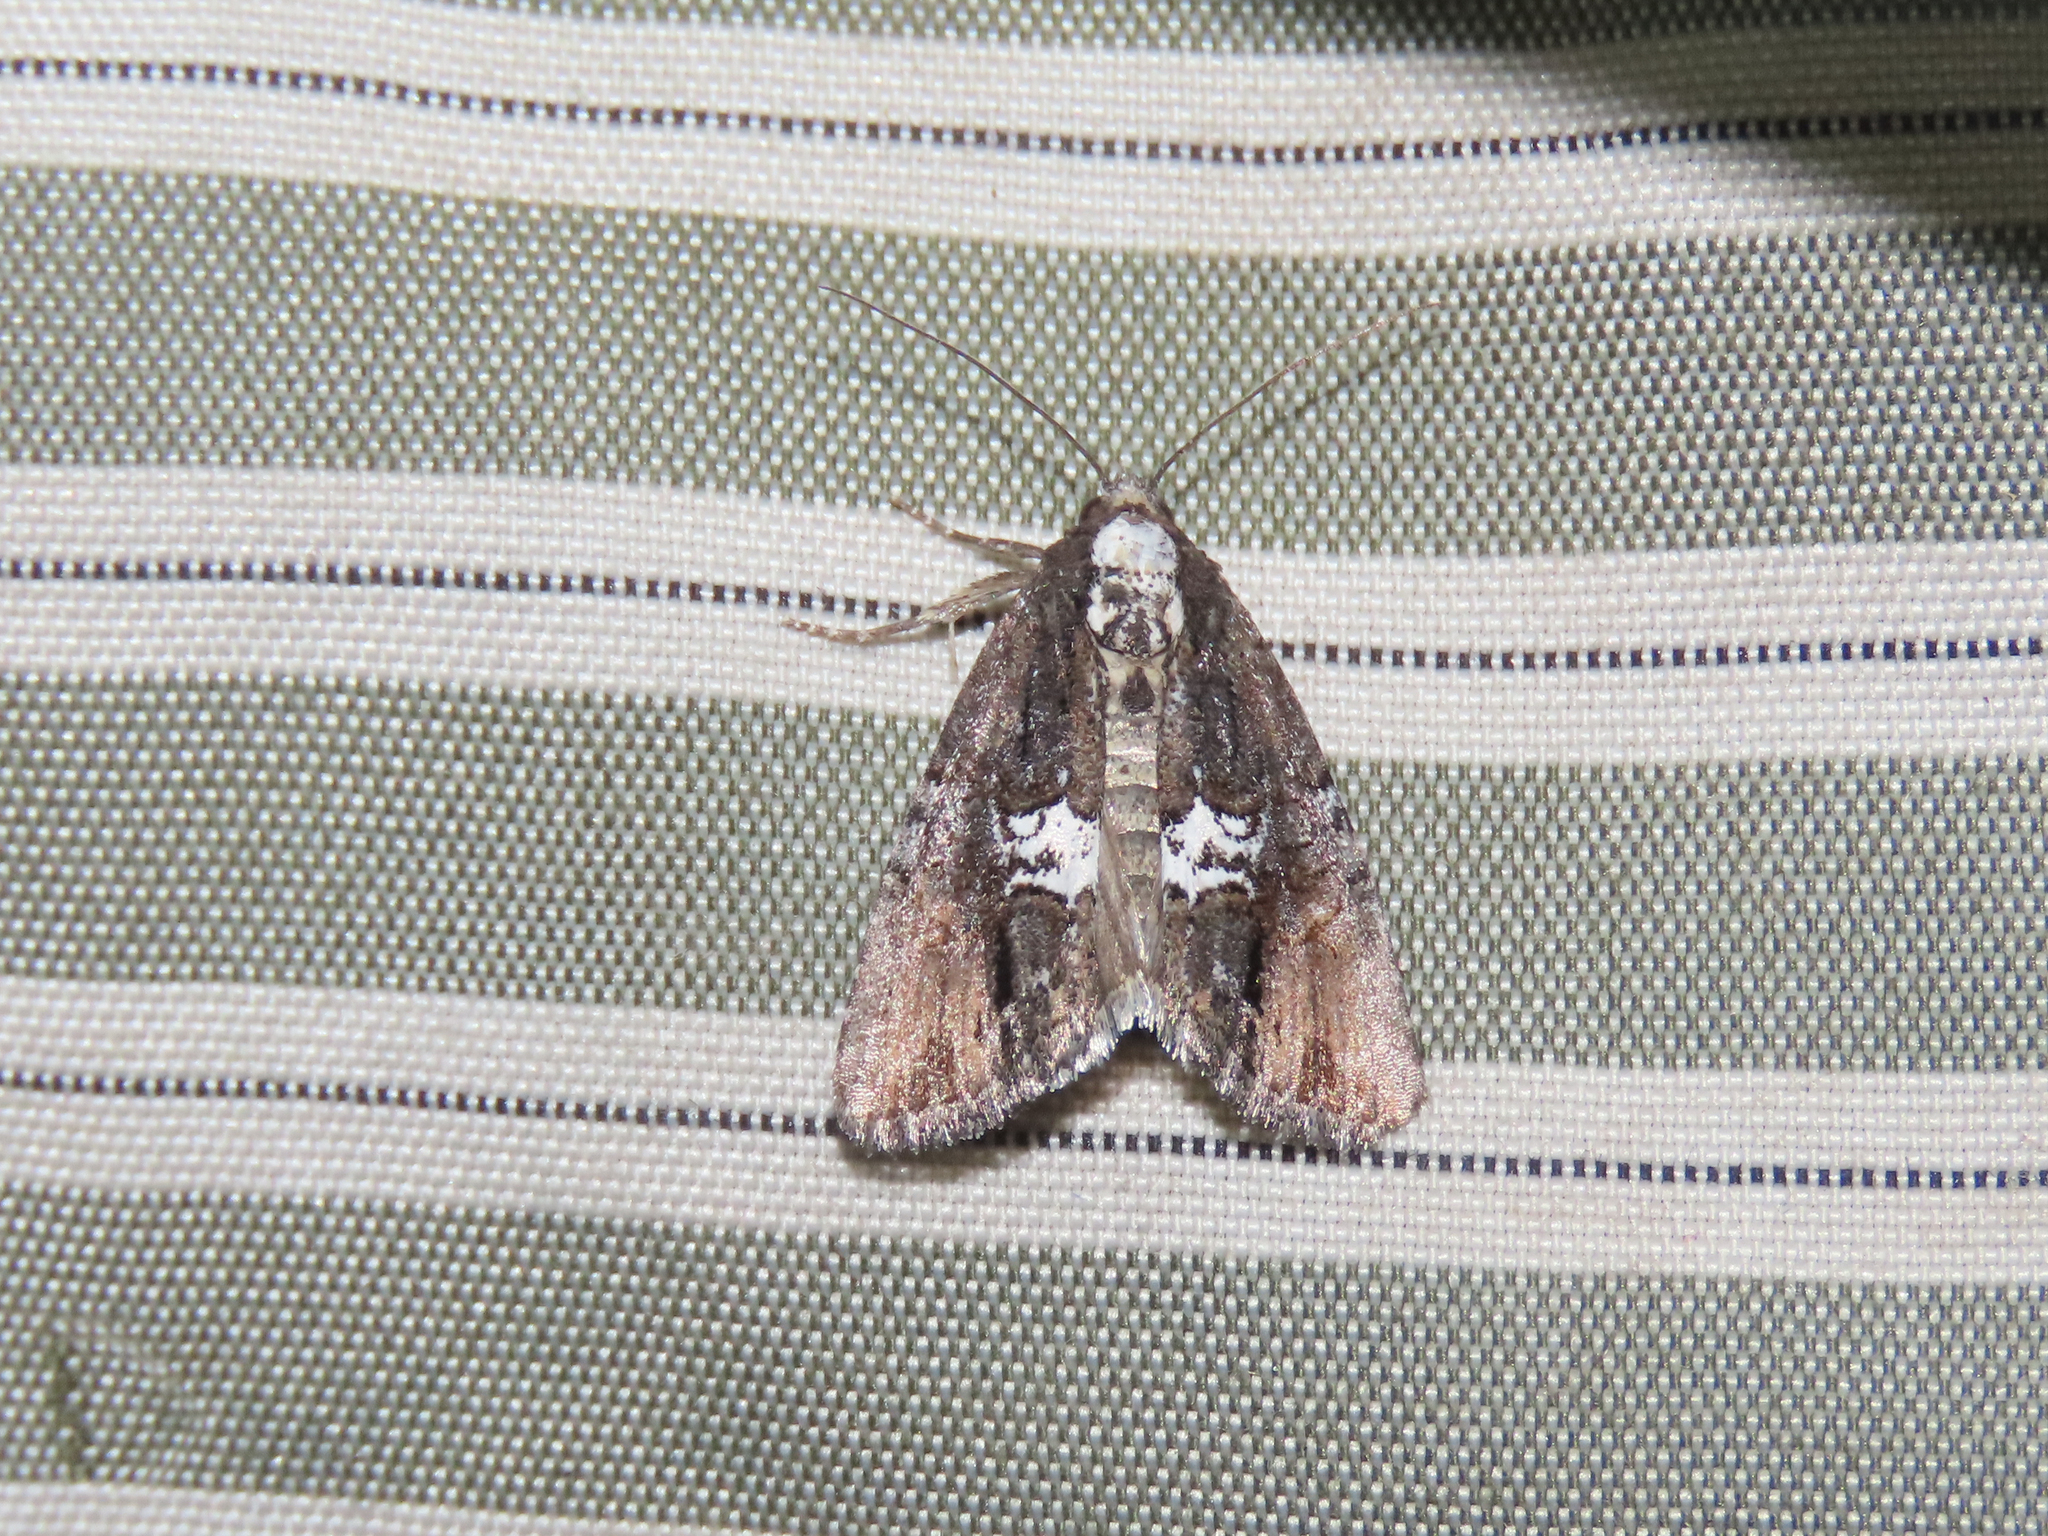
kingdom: Animalia
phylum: Arthropoda
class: Insecta
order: Lepidoptera
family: Noctuidae
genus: Bryolymnia
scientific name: Bryolymnia semifascia
